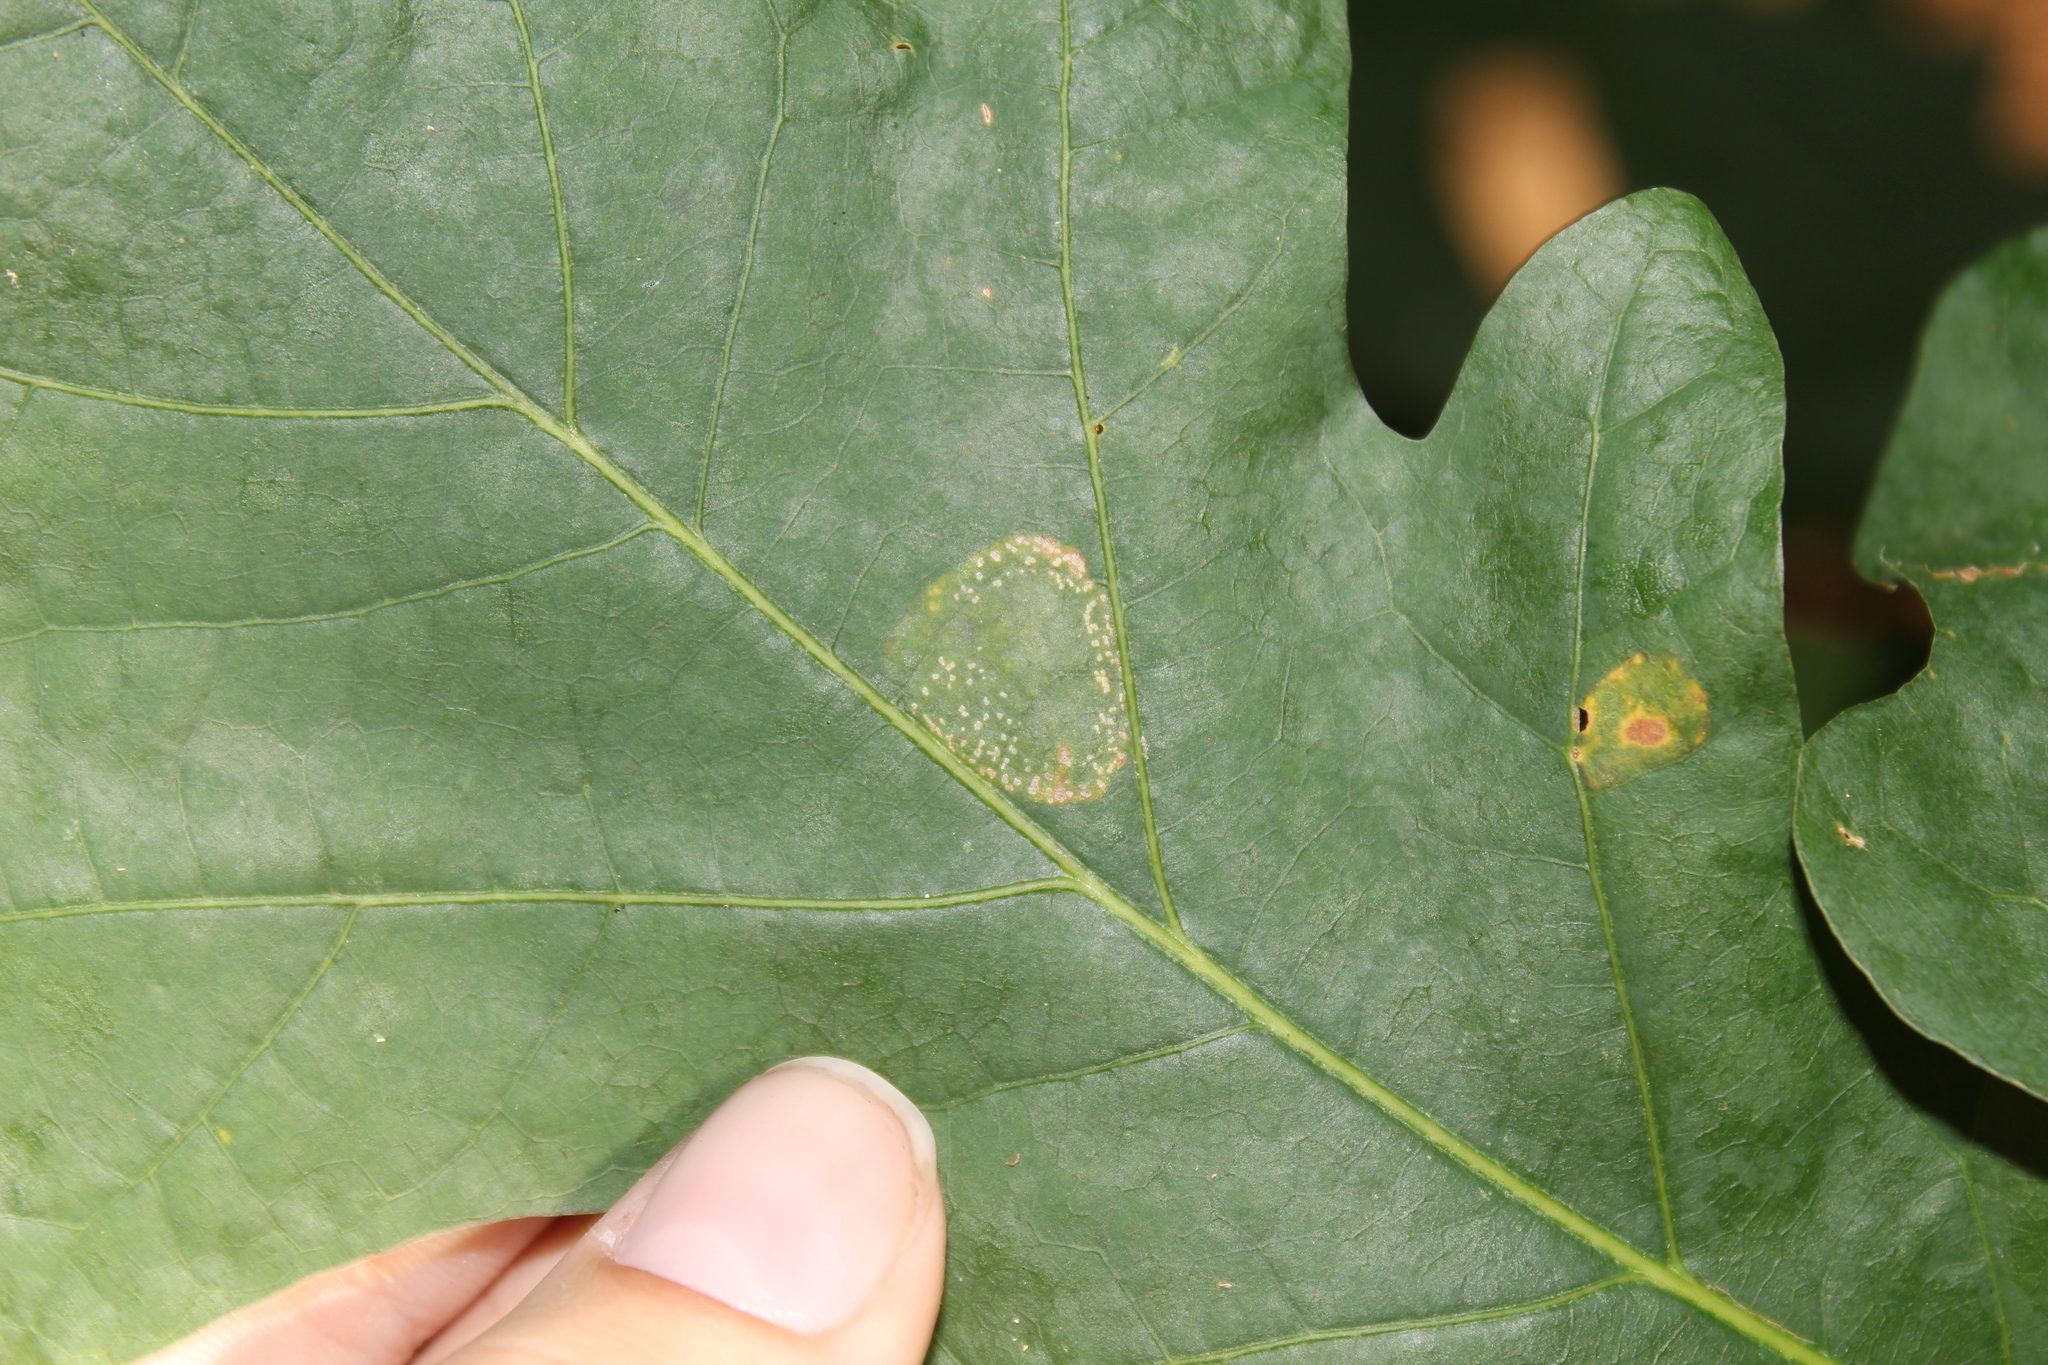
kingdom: Animalia
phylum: Arthropoda
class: Insecta
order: Lepidoptera
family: Gracillariidae
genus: Phyllonorycter
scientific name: Phyllonorycter
